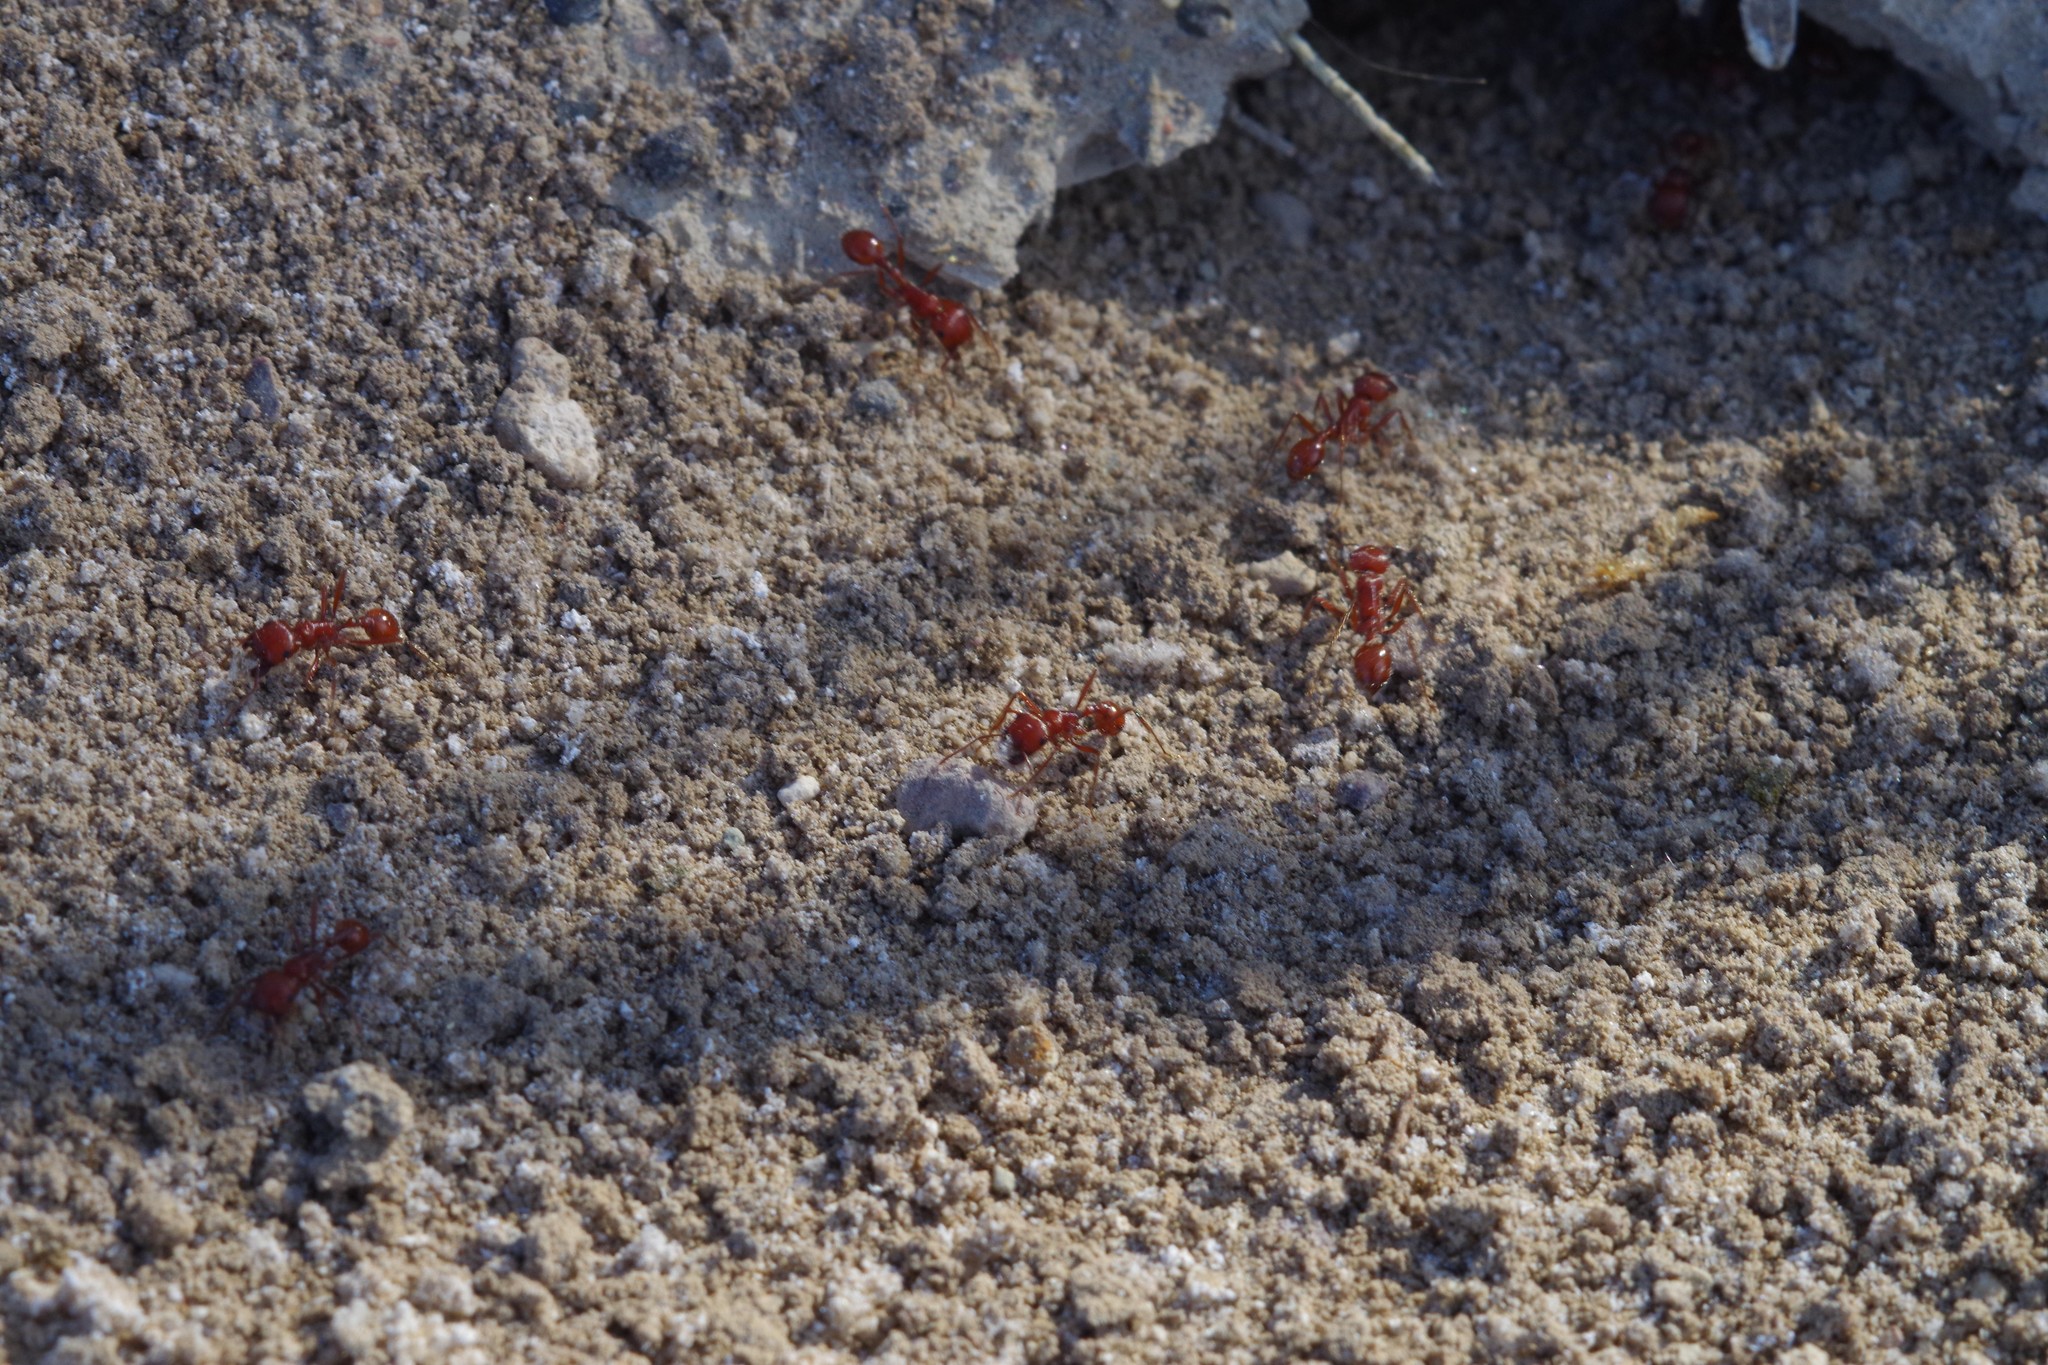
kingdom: Animalia
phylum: Arthropoda
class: Insecta
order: Hymenoptera
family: Formicidae
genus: Pogonomyrmex
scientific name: Pogonomyrmex californicus
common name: California harvester ant
